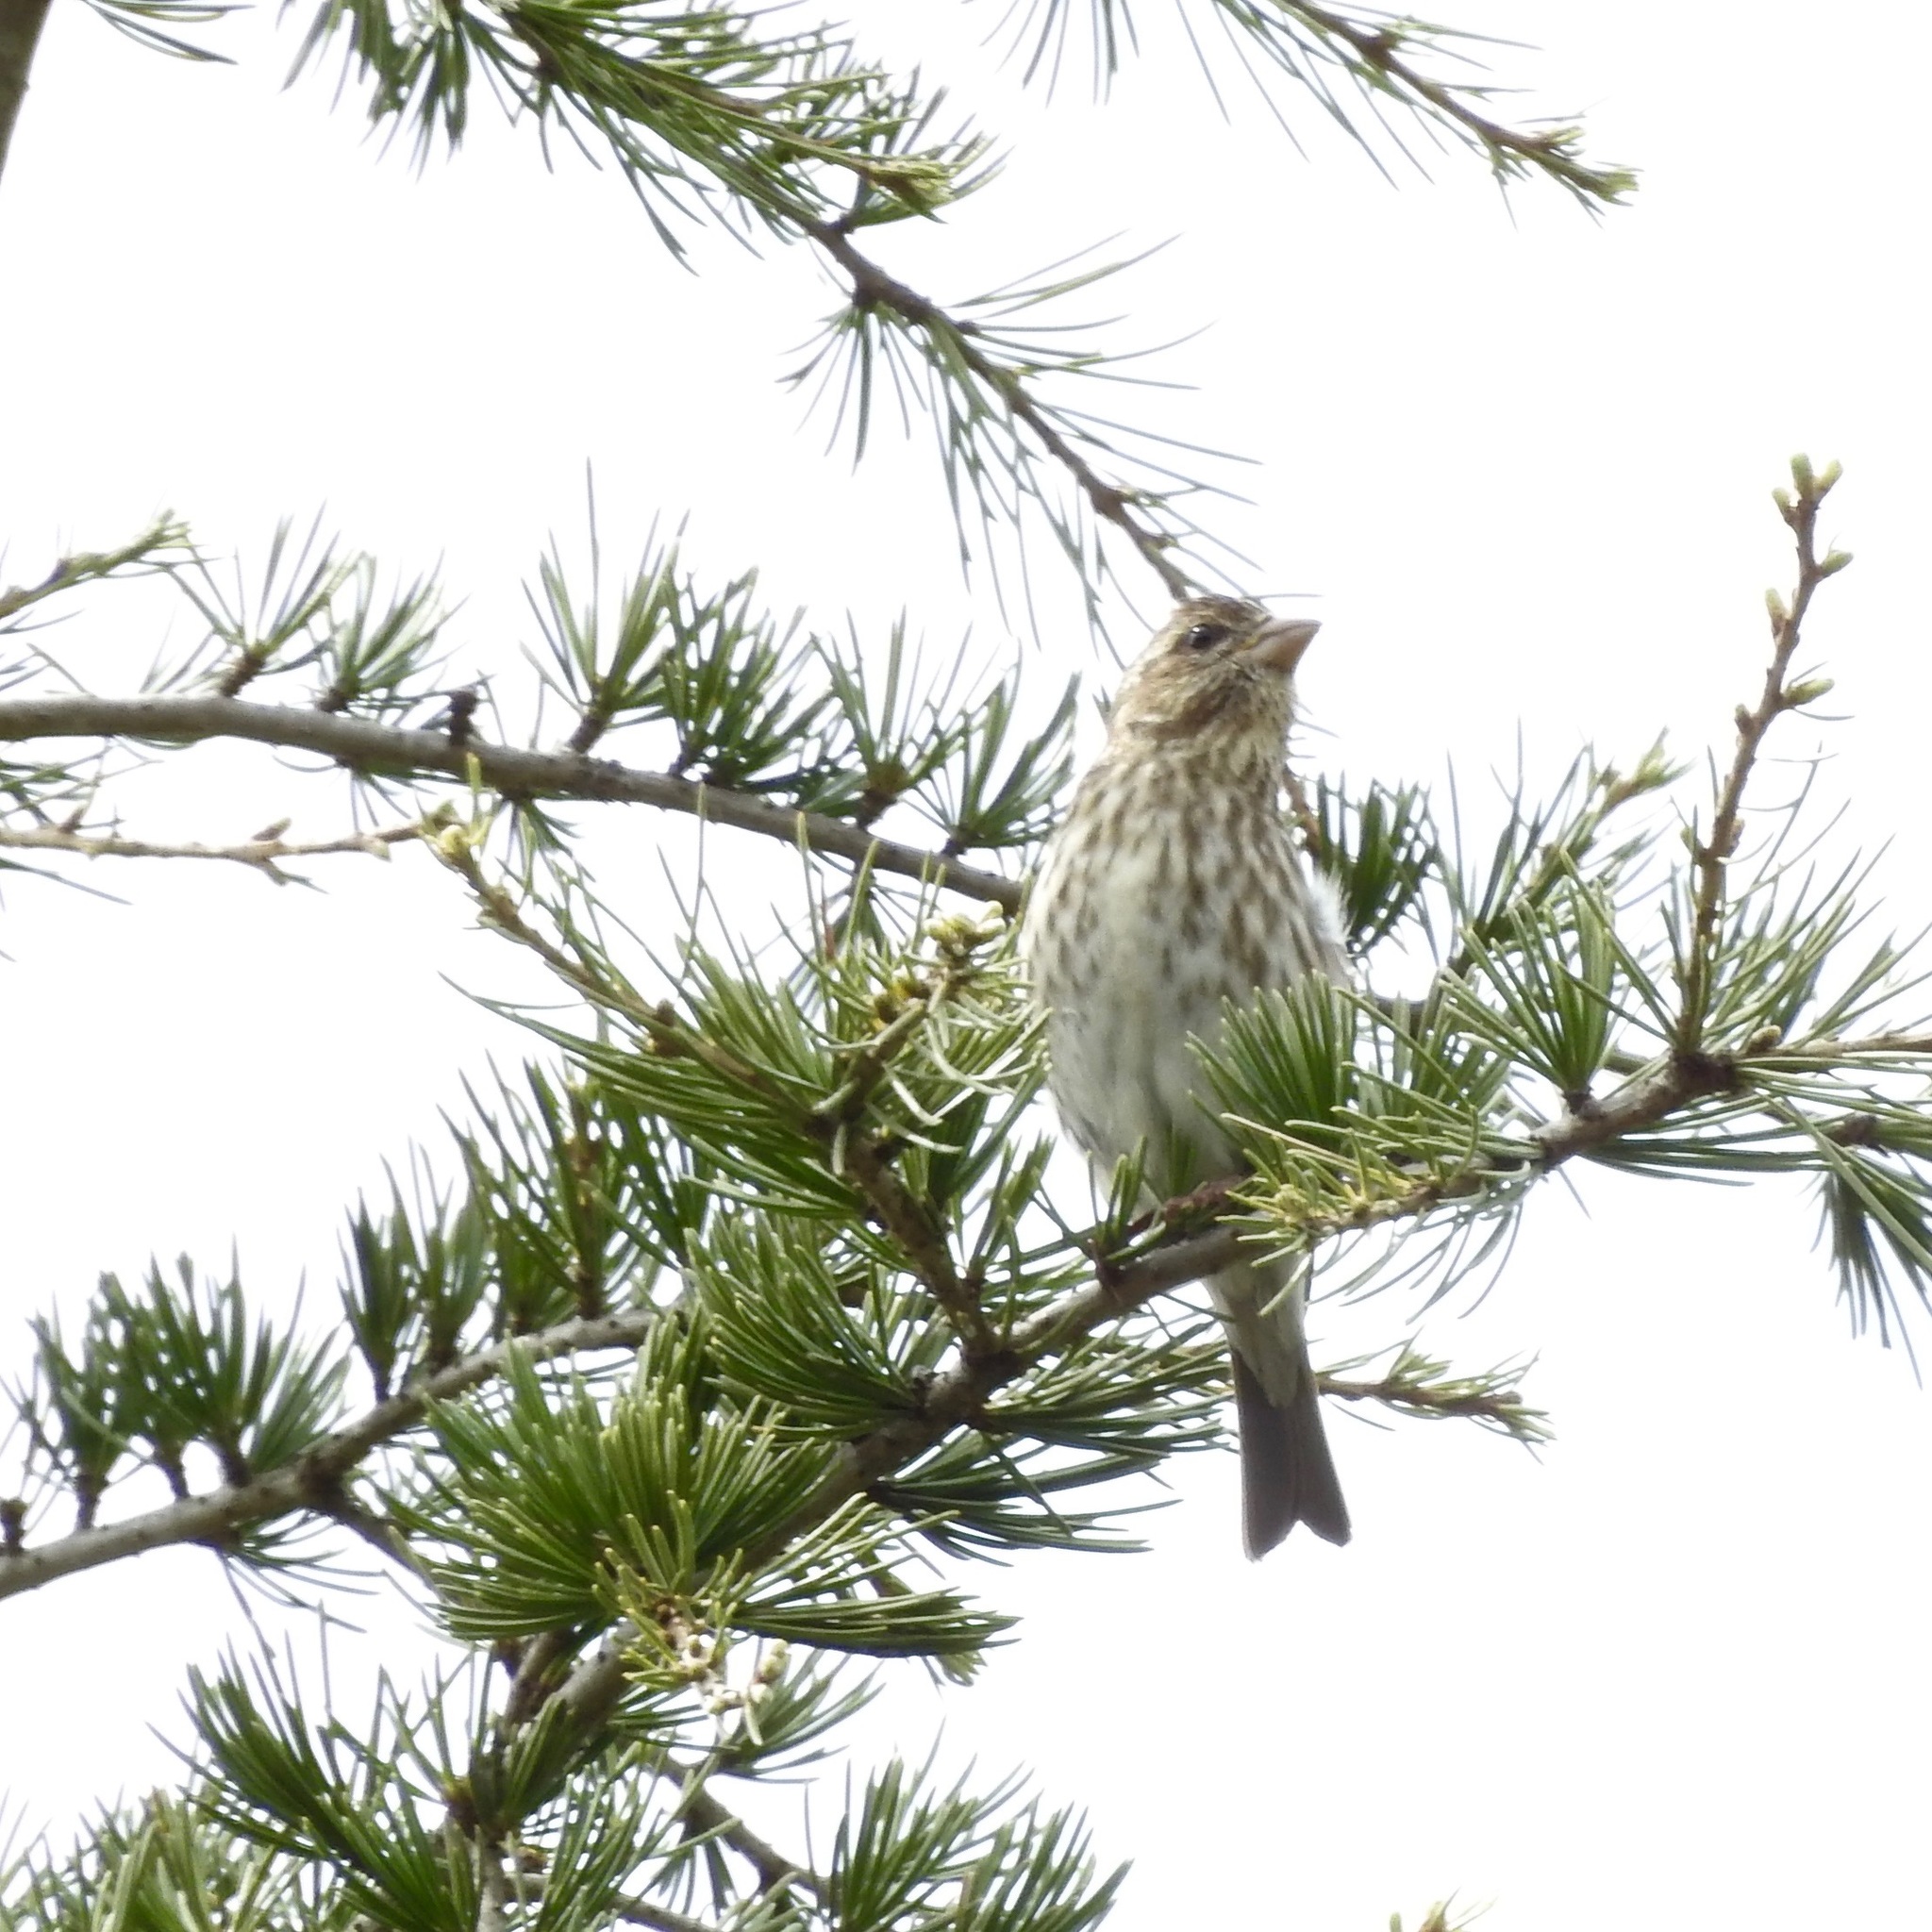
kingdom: Animalia
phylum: Chordata
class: Aves
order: Passeriformes
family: Fringillidae
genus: Haemorhous
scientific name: Haemorhous purpureus
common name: Purple finch
